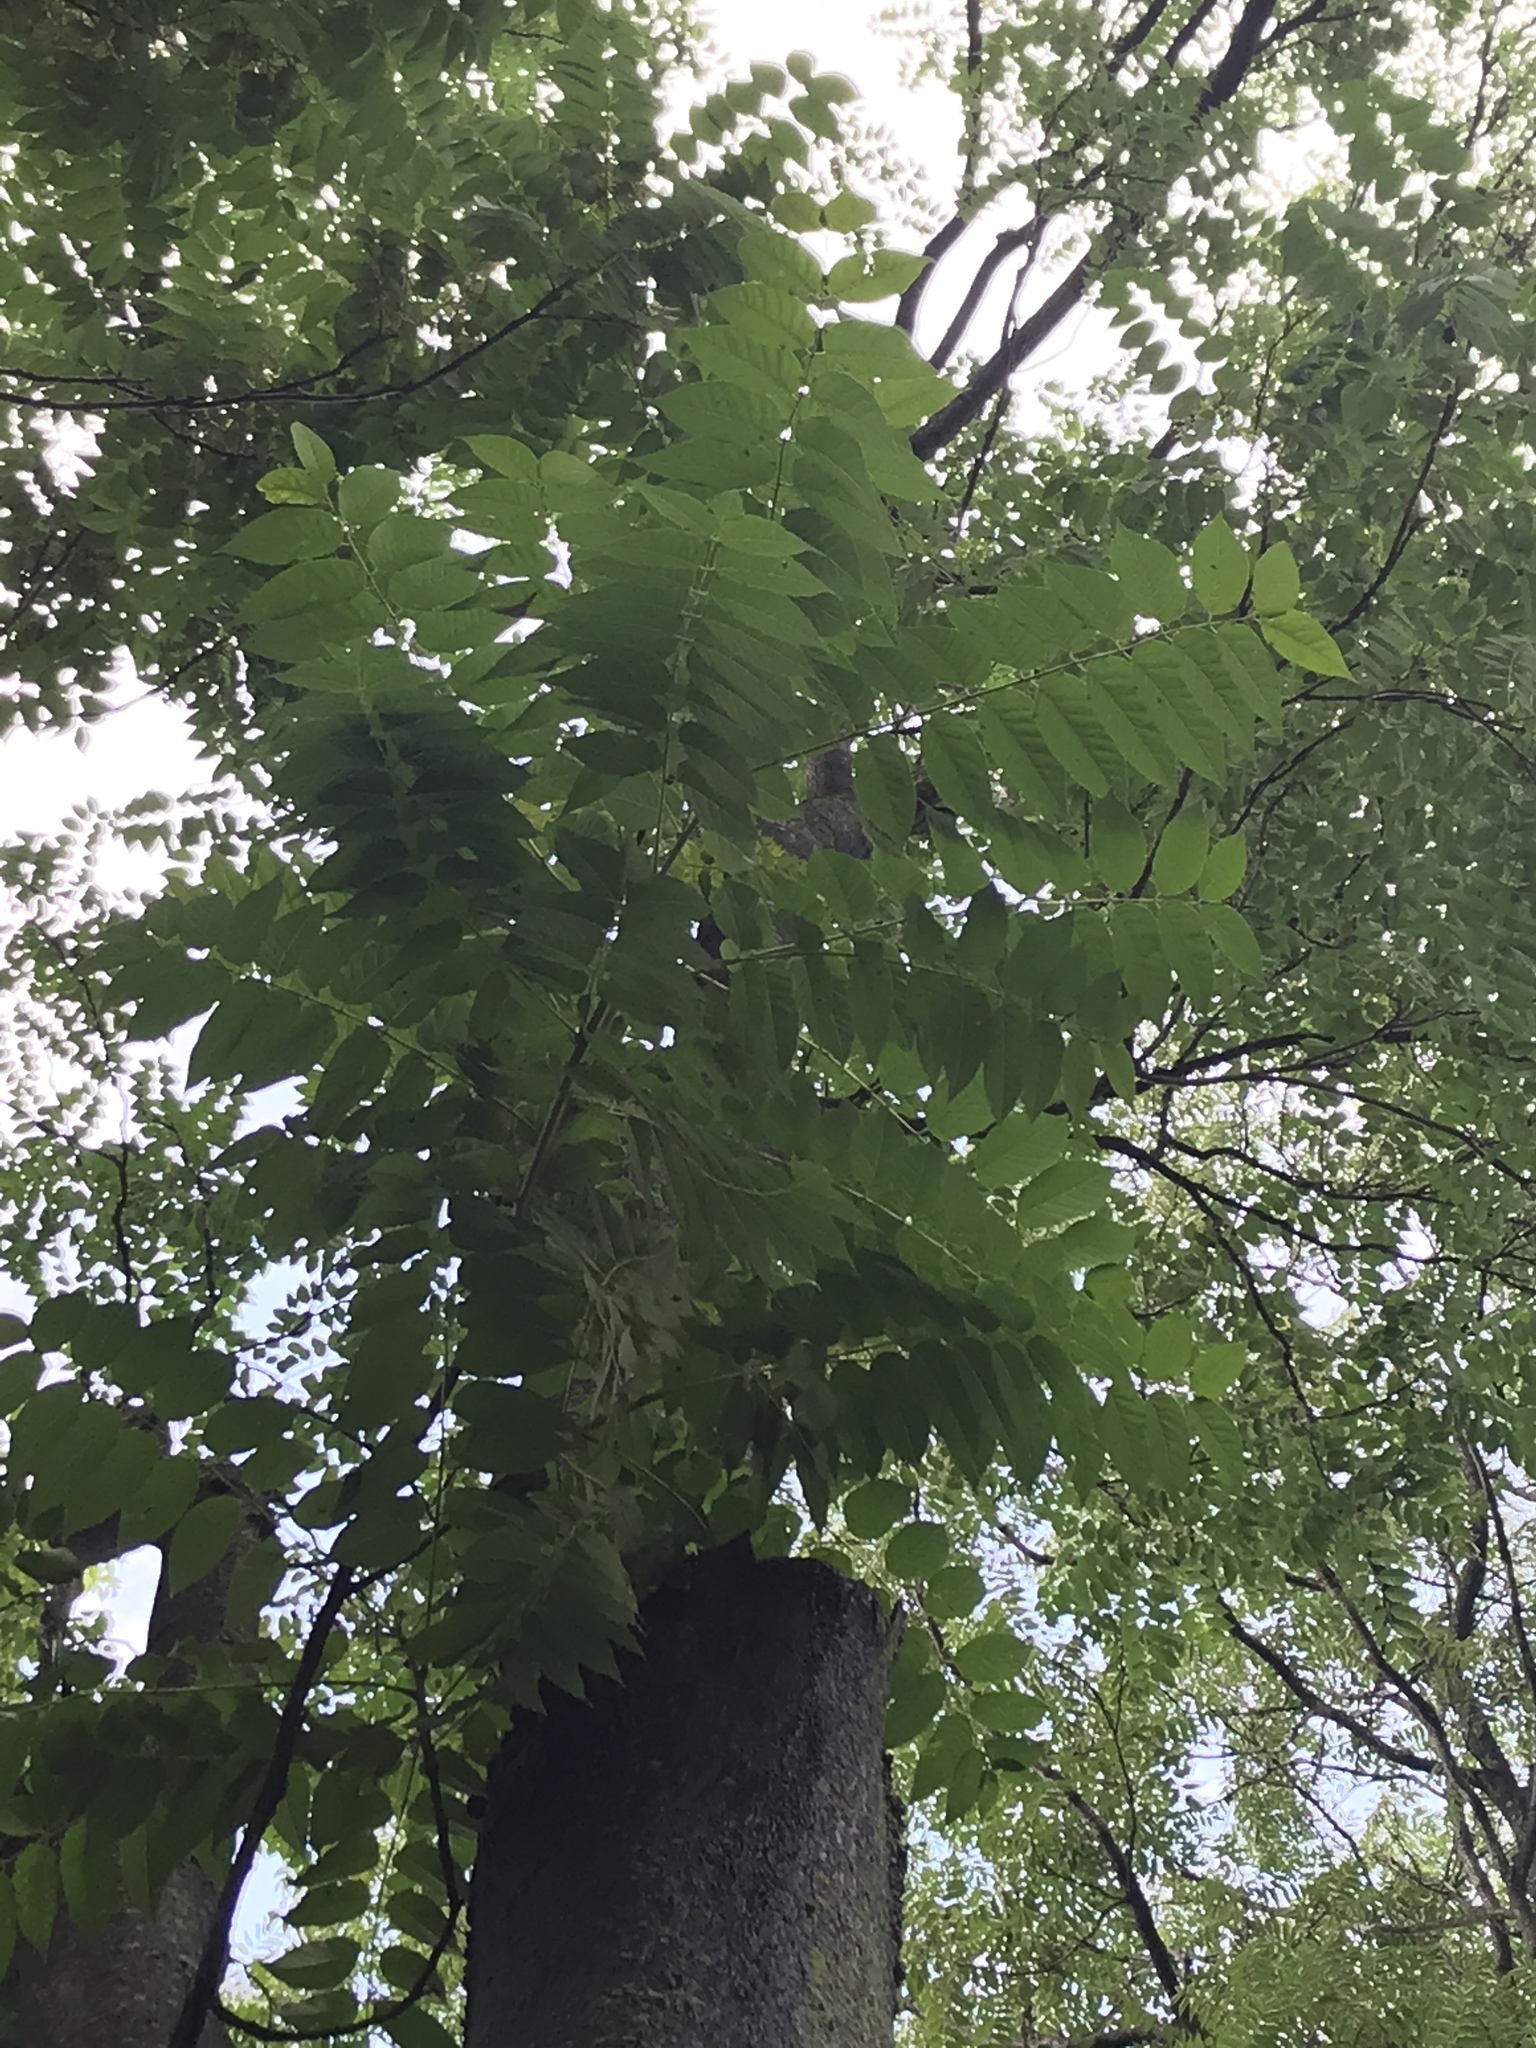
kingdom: Plantae
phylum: Tracheophyta
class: Magnoliopsida
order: Sapindales
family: Simaroubaceae
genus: Ailanthus
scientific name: Ailanthus altissima
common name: Tree-of-heaven
